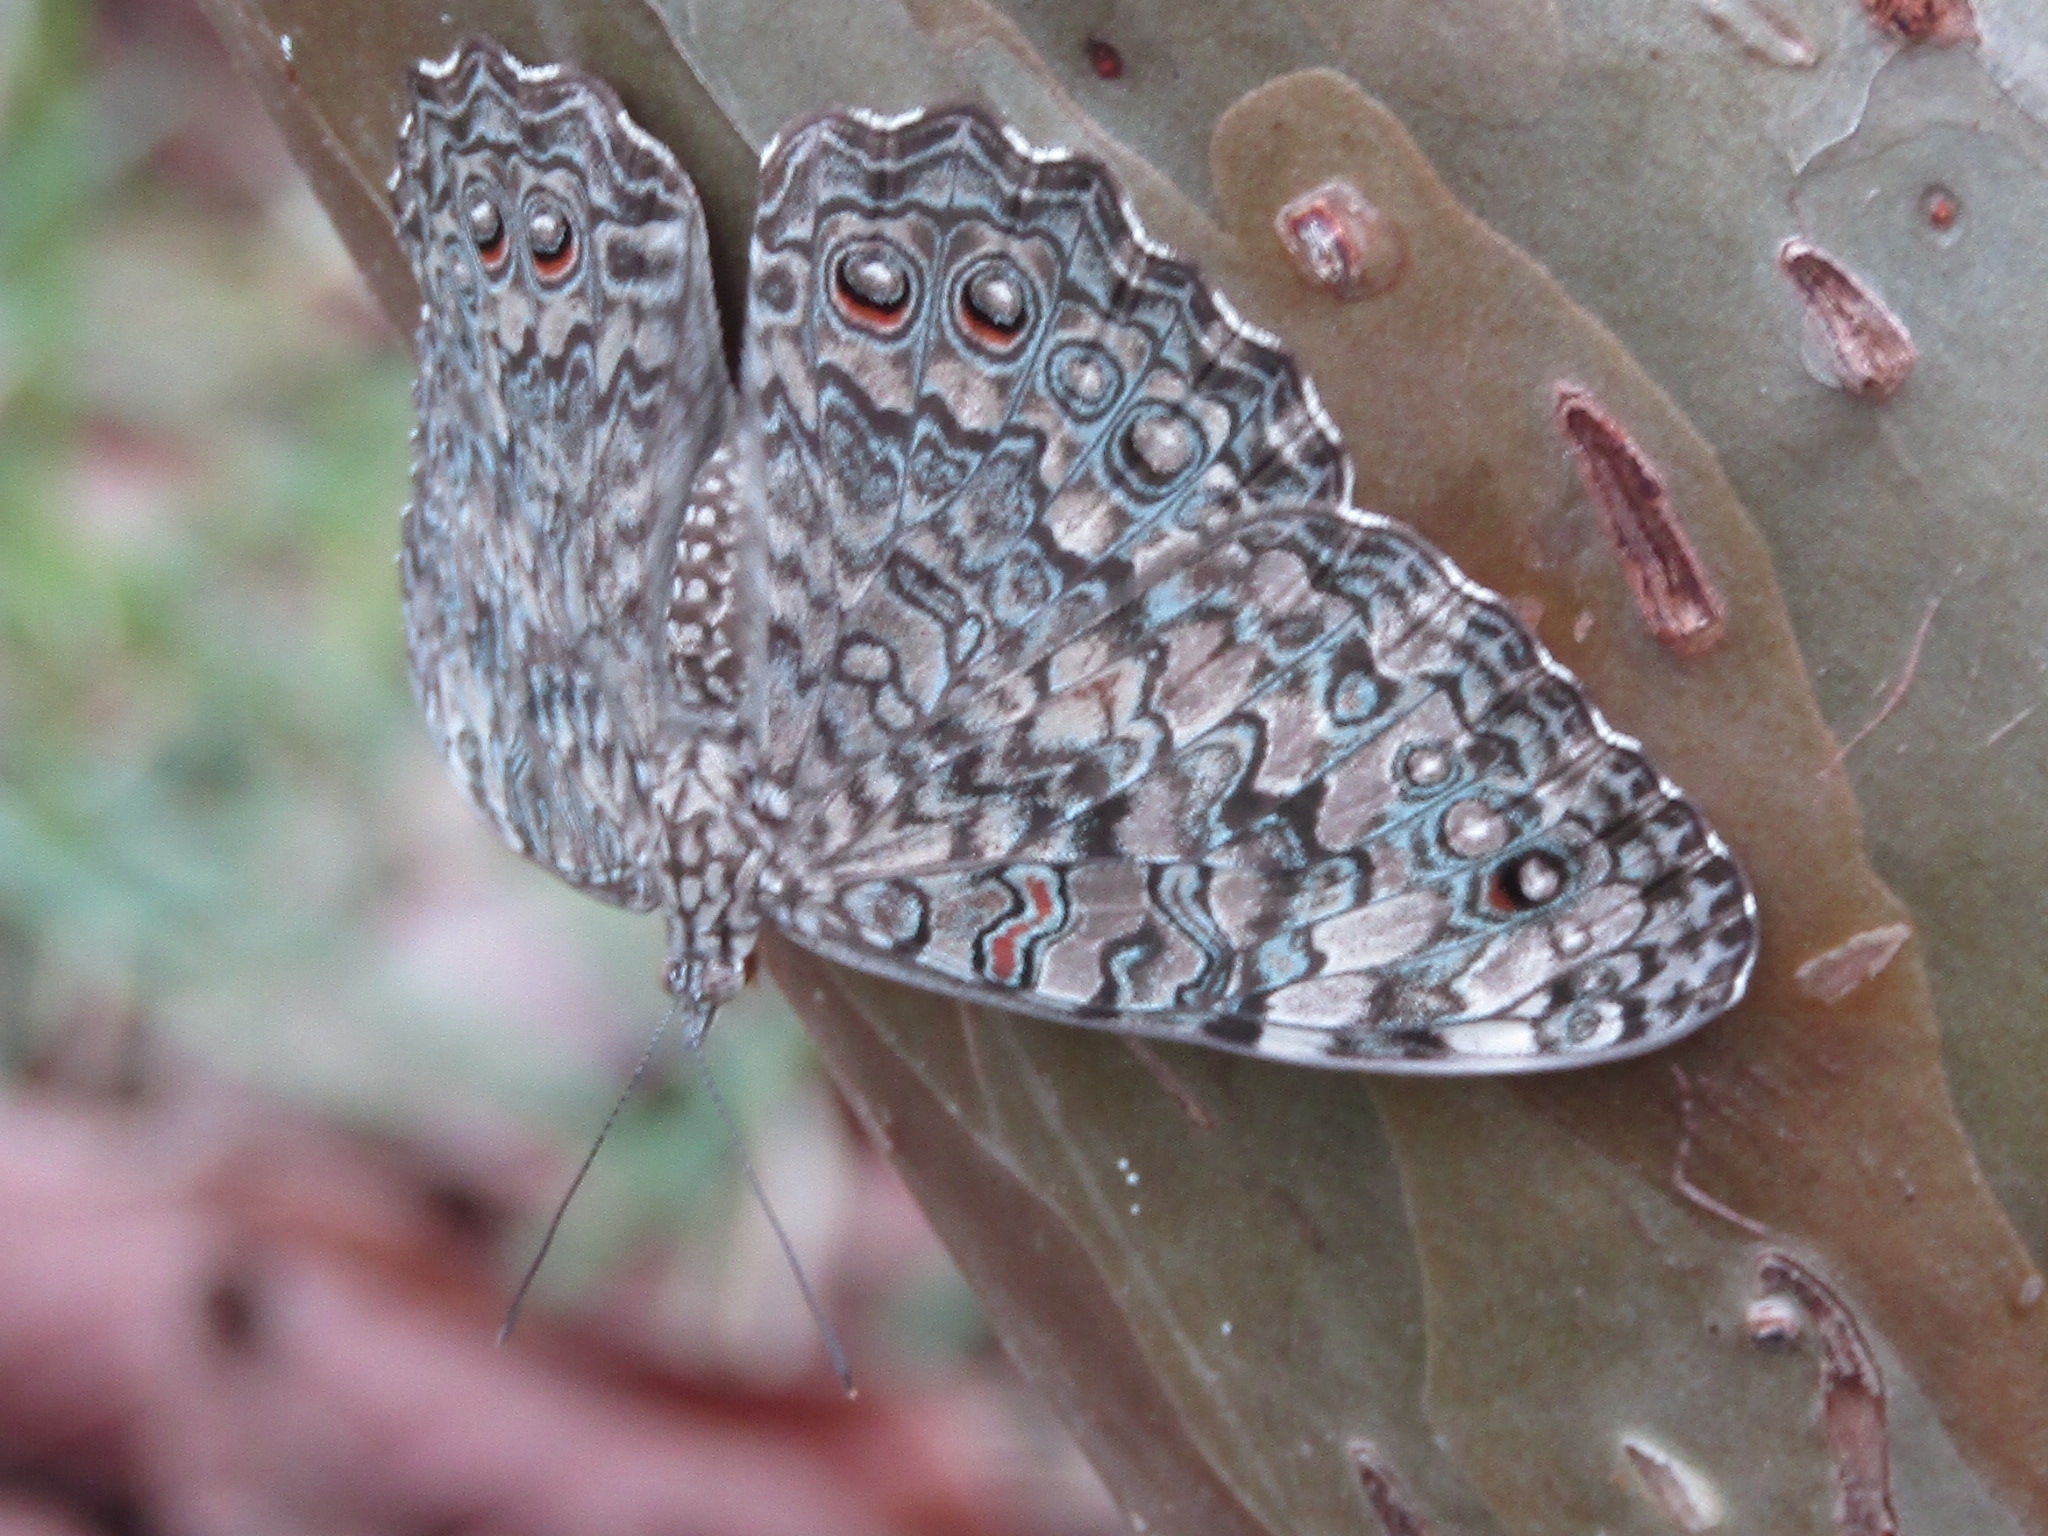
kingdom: Animalia
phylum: Arthropoda
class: Insecta
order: Lepidoptera
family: Nymphalidae
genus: Hamadryas
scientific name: Hamadryas februa
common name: Gray cracker
